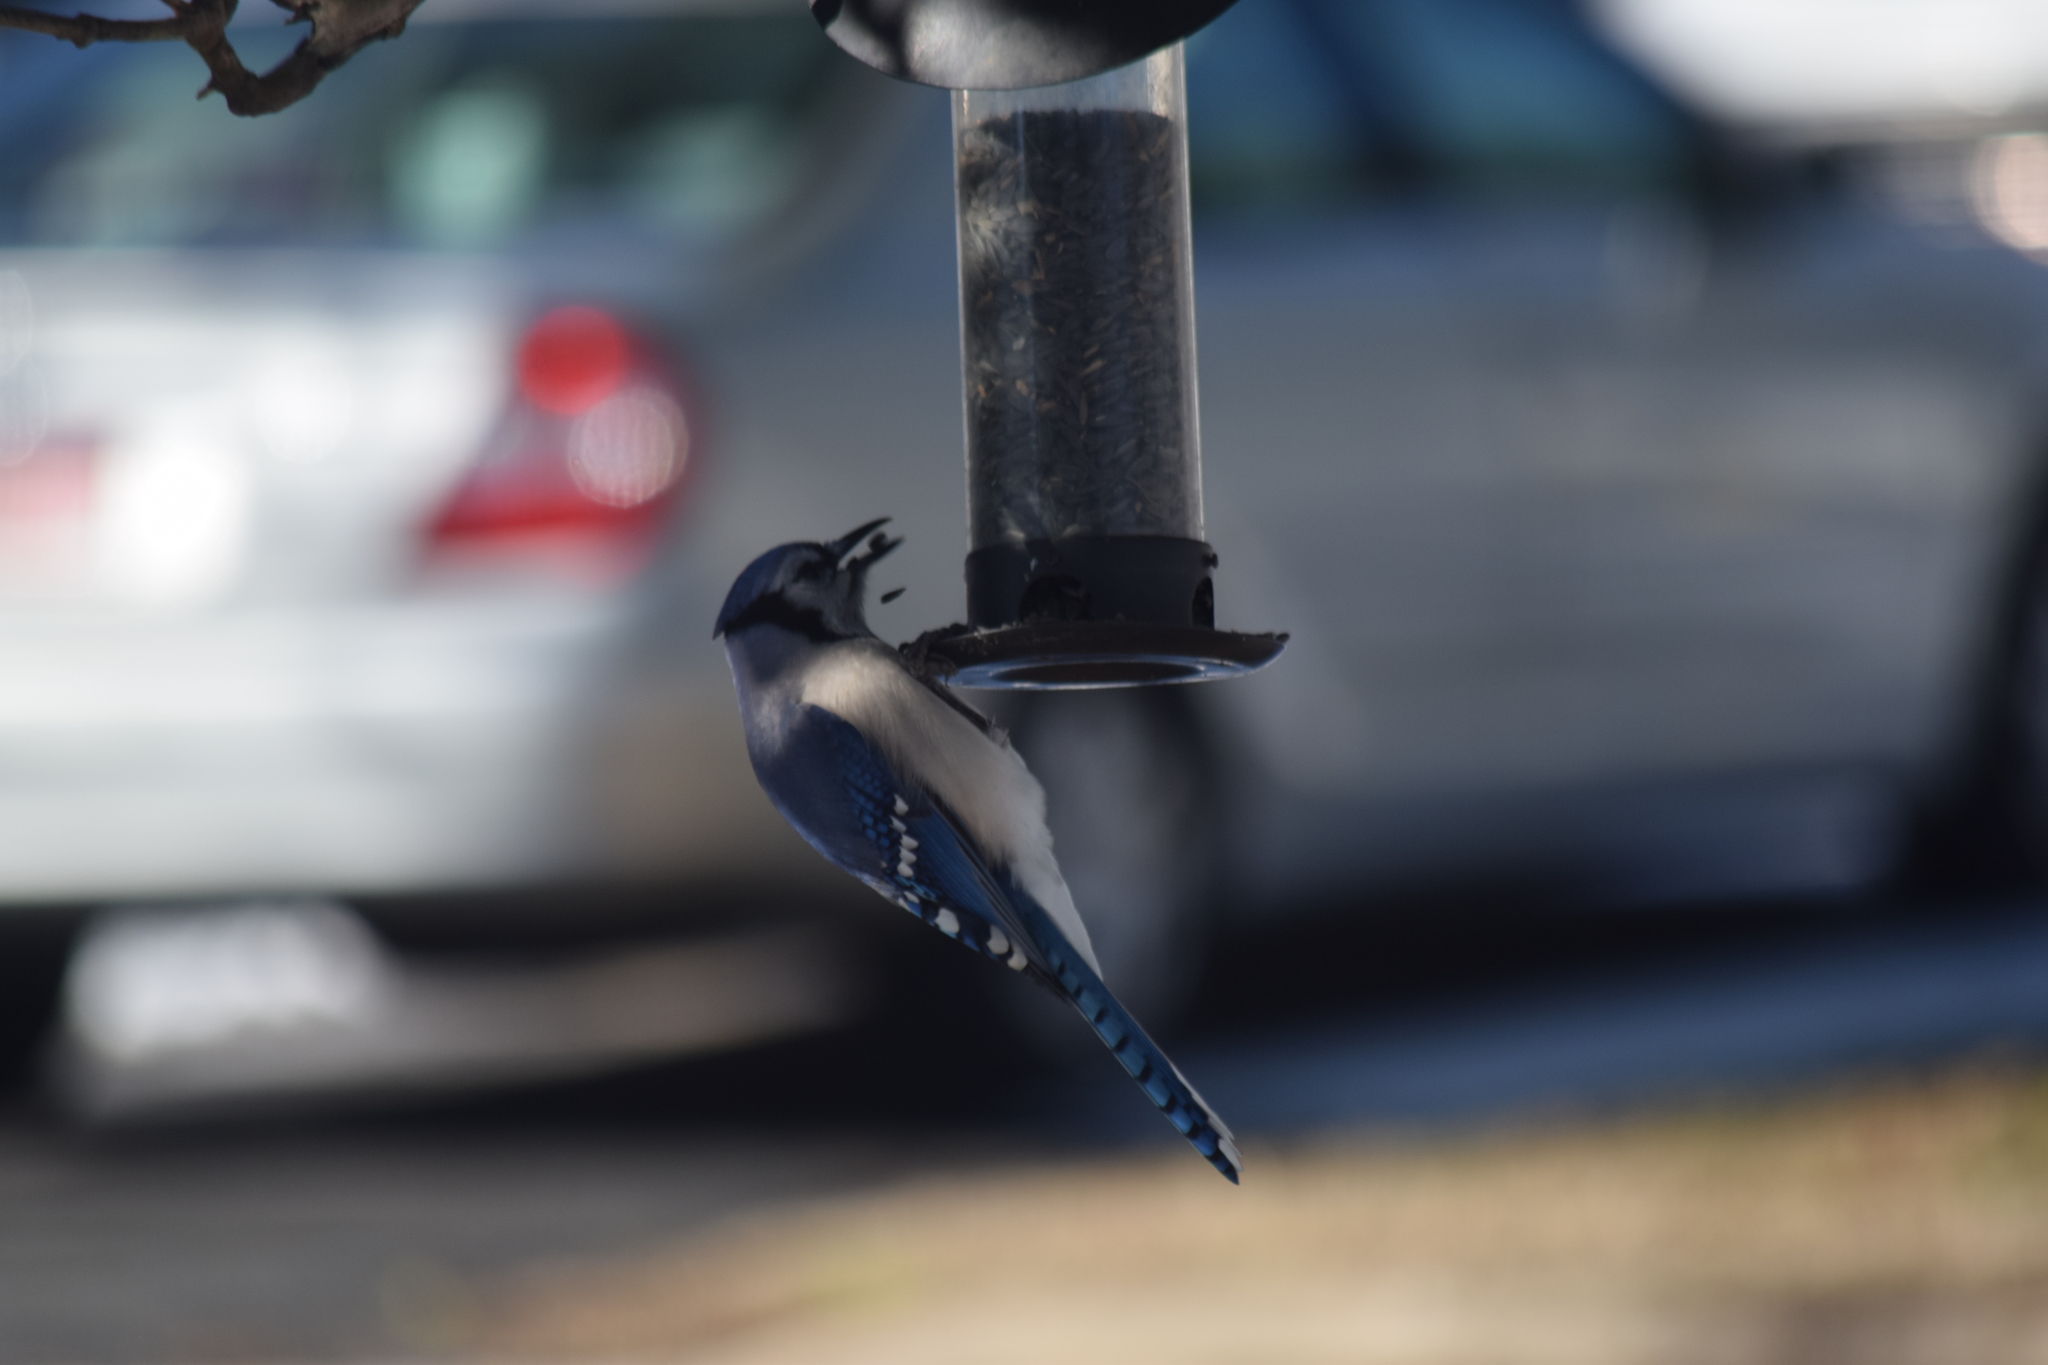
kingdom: Animalia
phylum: Chordata
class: Aves
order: Passeriformes
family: Corvidae
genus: Cyanocitta
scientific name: Cyanocitta cristata
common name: Blue jay
